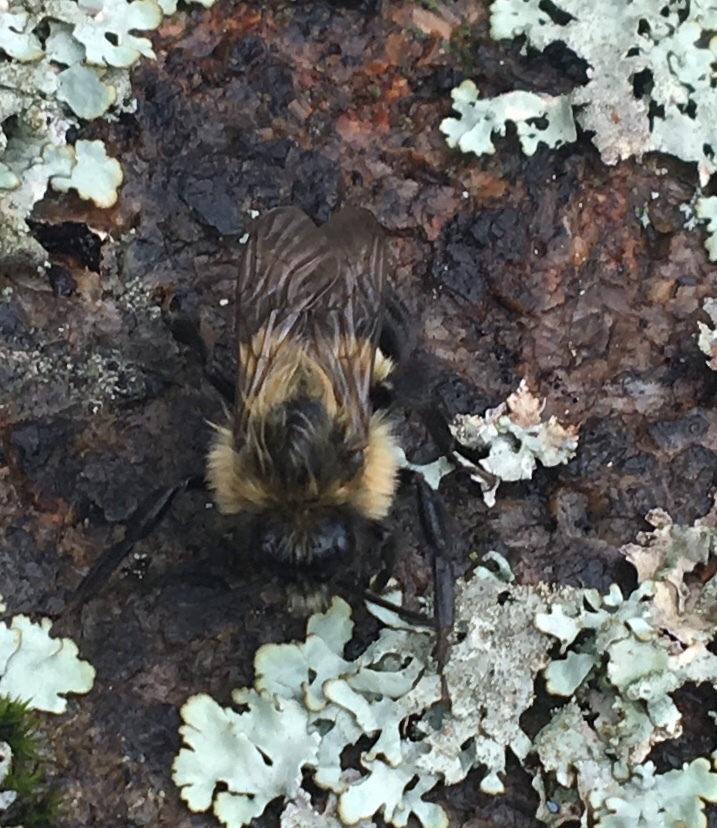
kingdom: Animalia
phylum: Arthropoda
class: Insecta
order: Hymenoptera
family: Apidae
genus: Bombus
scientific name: Bombus impatiens
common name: Common eastern bumble bee
